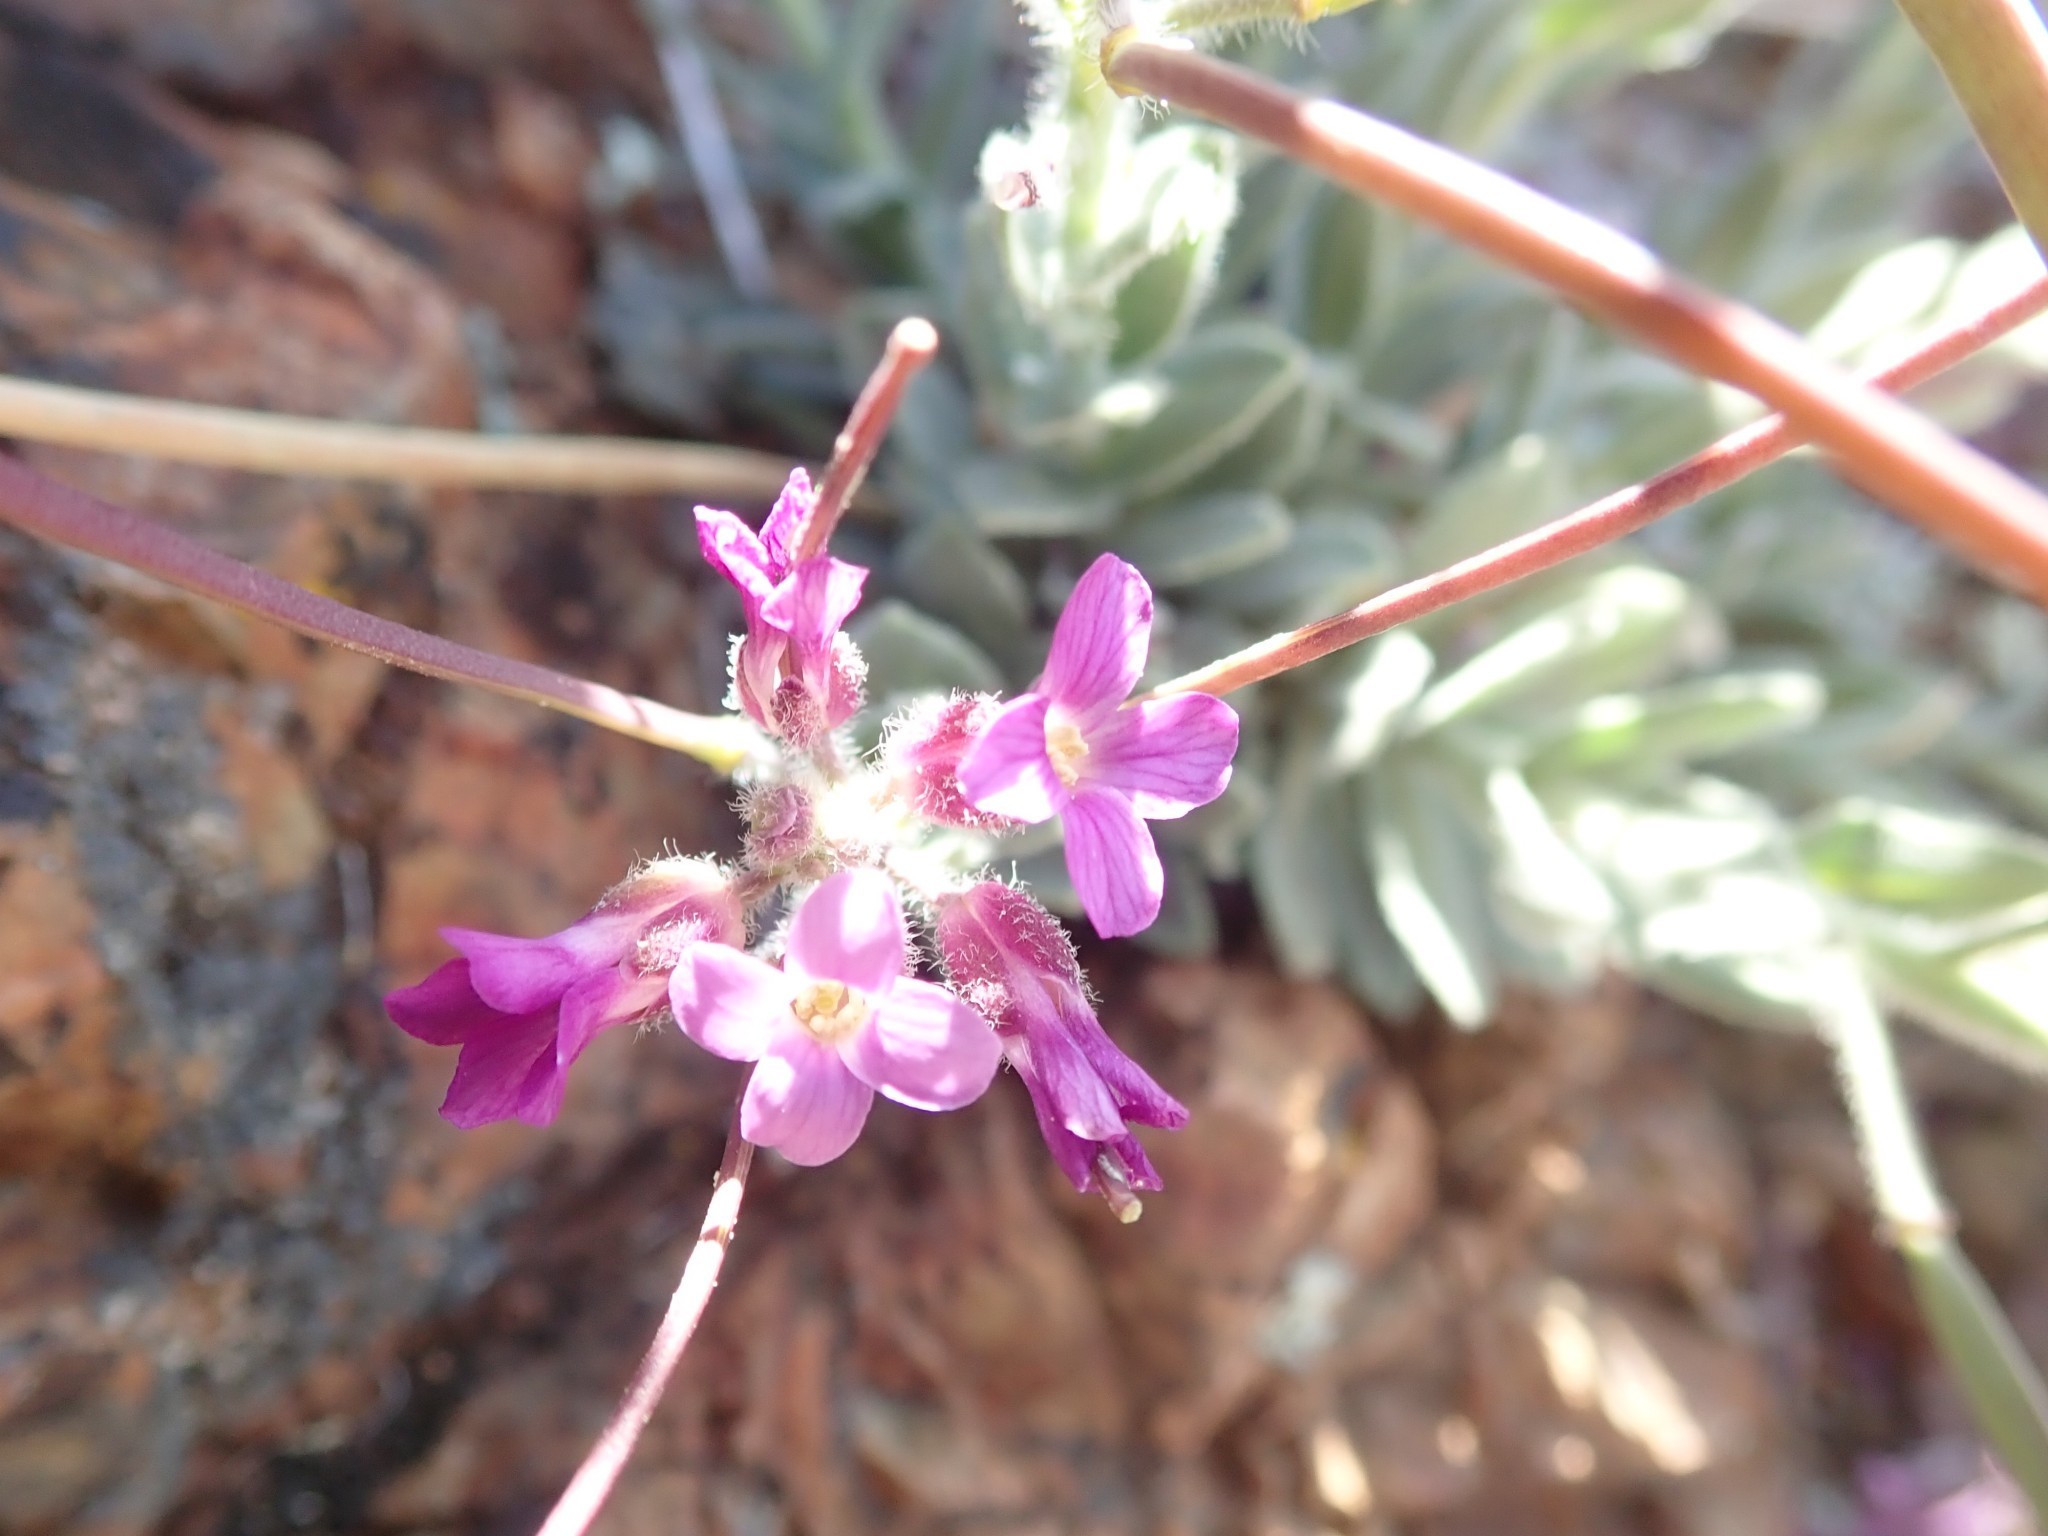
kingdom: Plantae
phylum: Tracheophyta
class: Magnoliopsida
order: Brassicales
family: Brassicaceae
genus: Boechera
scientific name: Boechera breweri
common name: Brewer's rockcress
